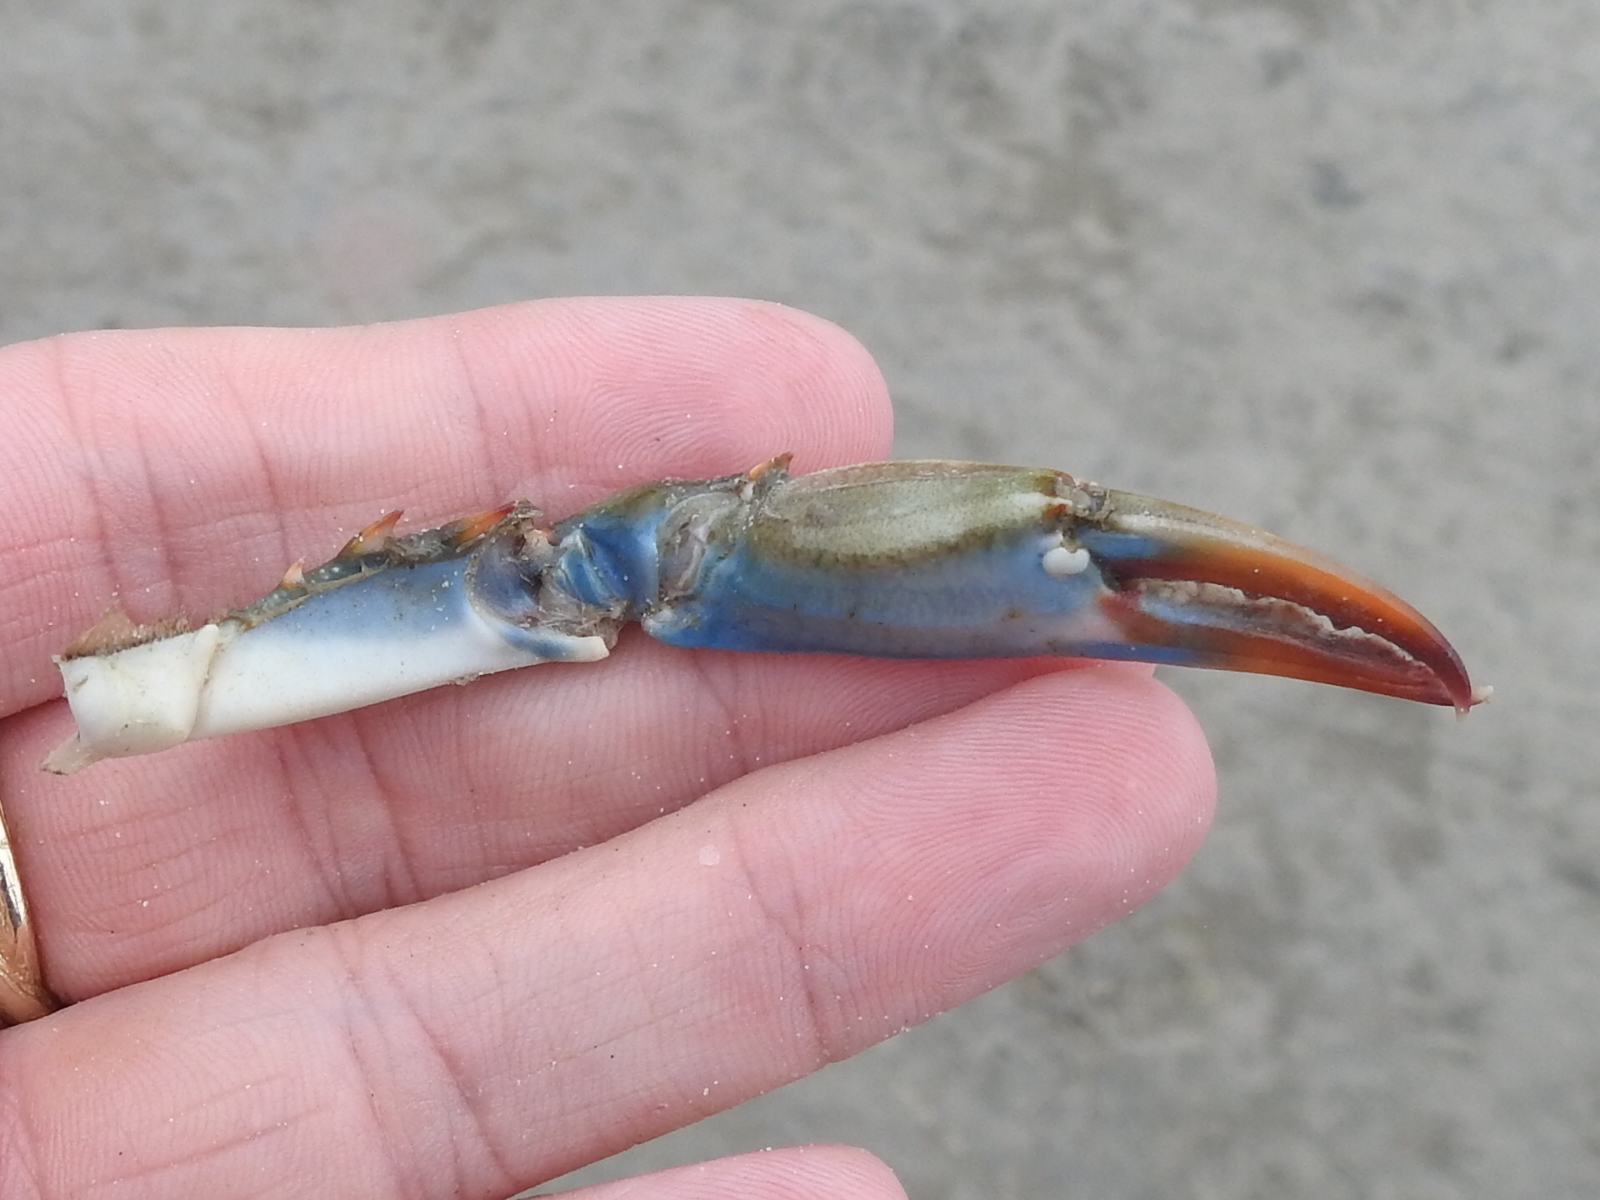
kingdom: Animalia
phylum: Arthropoda
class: Malacostraca
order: Decapoda
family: Portunidae
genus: Callinectes
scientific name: Callinectes sapidus
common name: Blue crab
